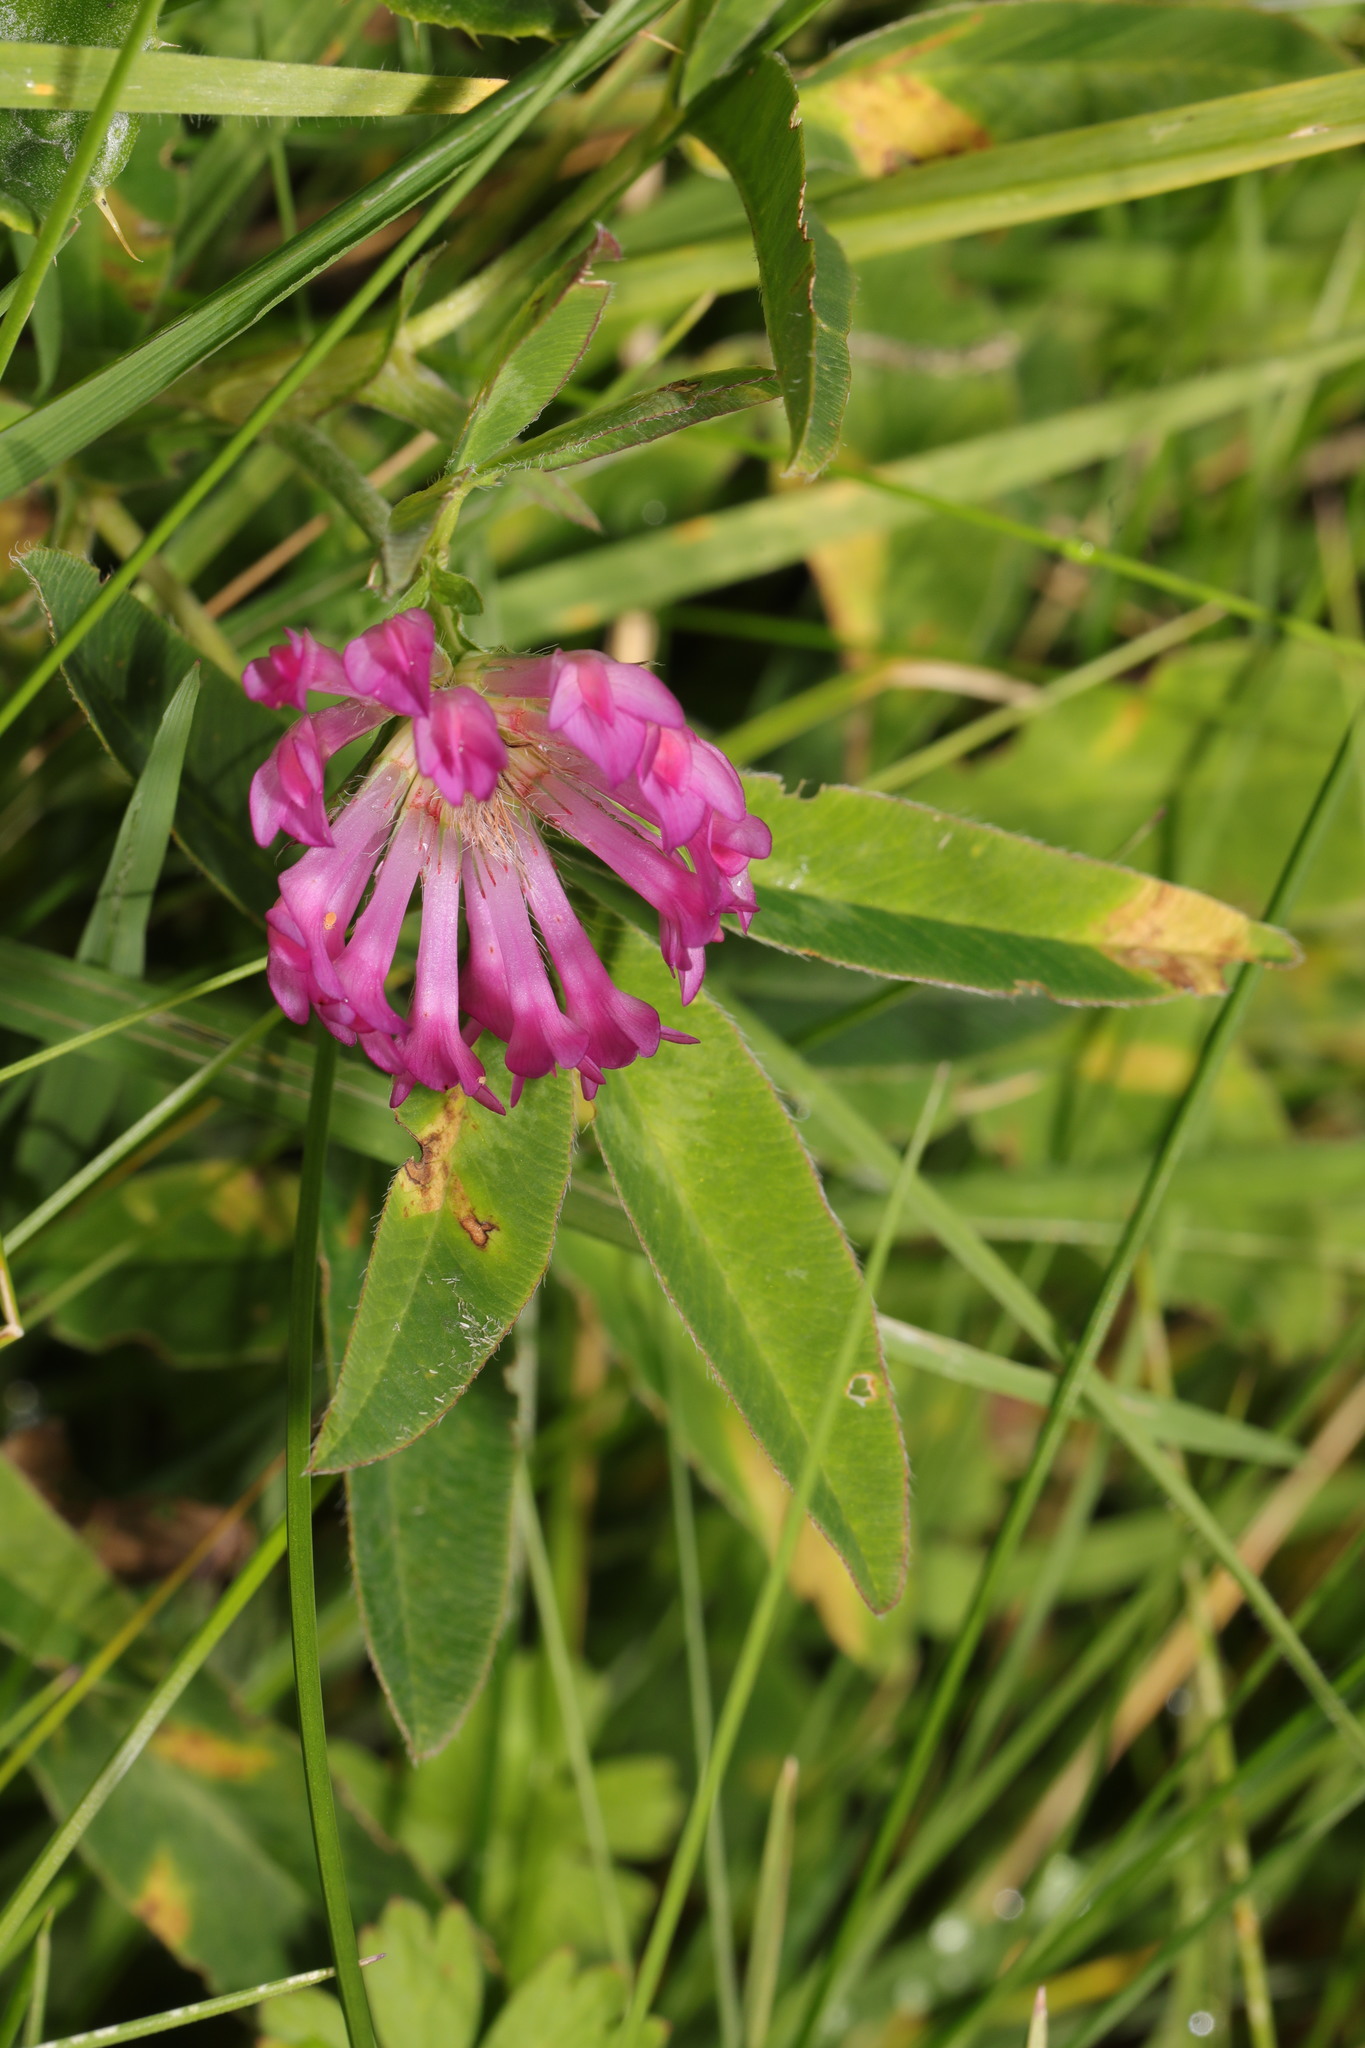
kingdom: Plantae
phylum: Tracheophyta
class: Magnoliopsida
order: Fabales
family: Fabaceae
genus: Trifolium
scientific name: Trifolium medium
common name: Zigzag clover
